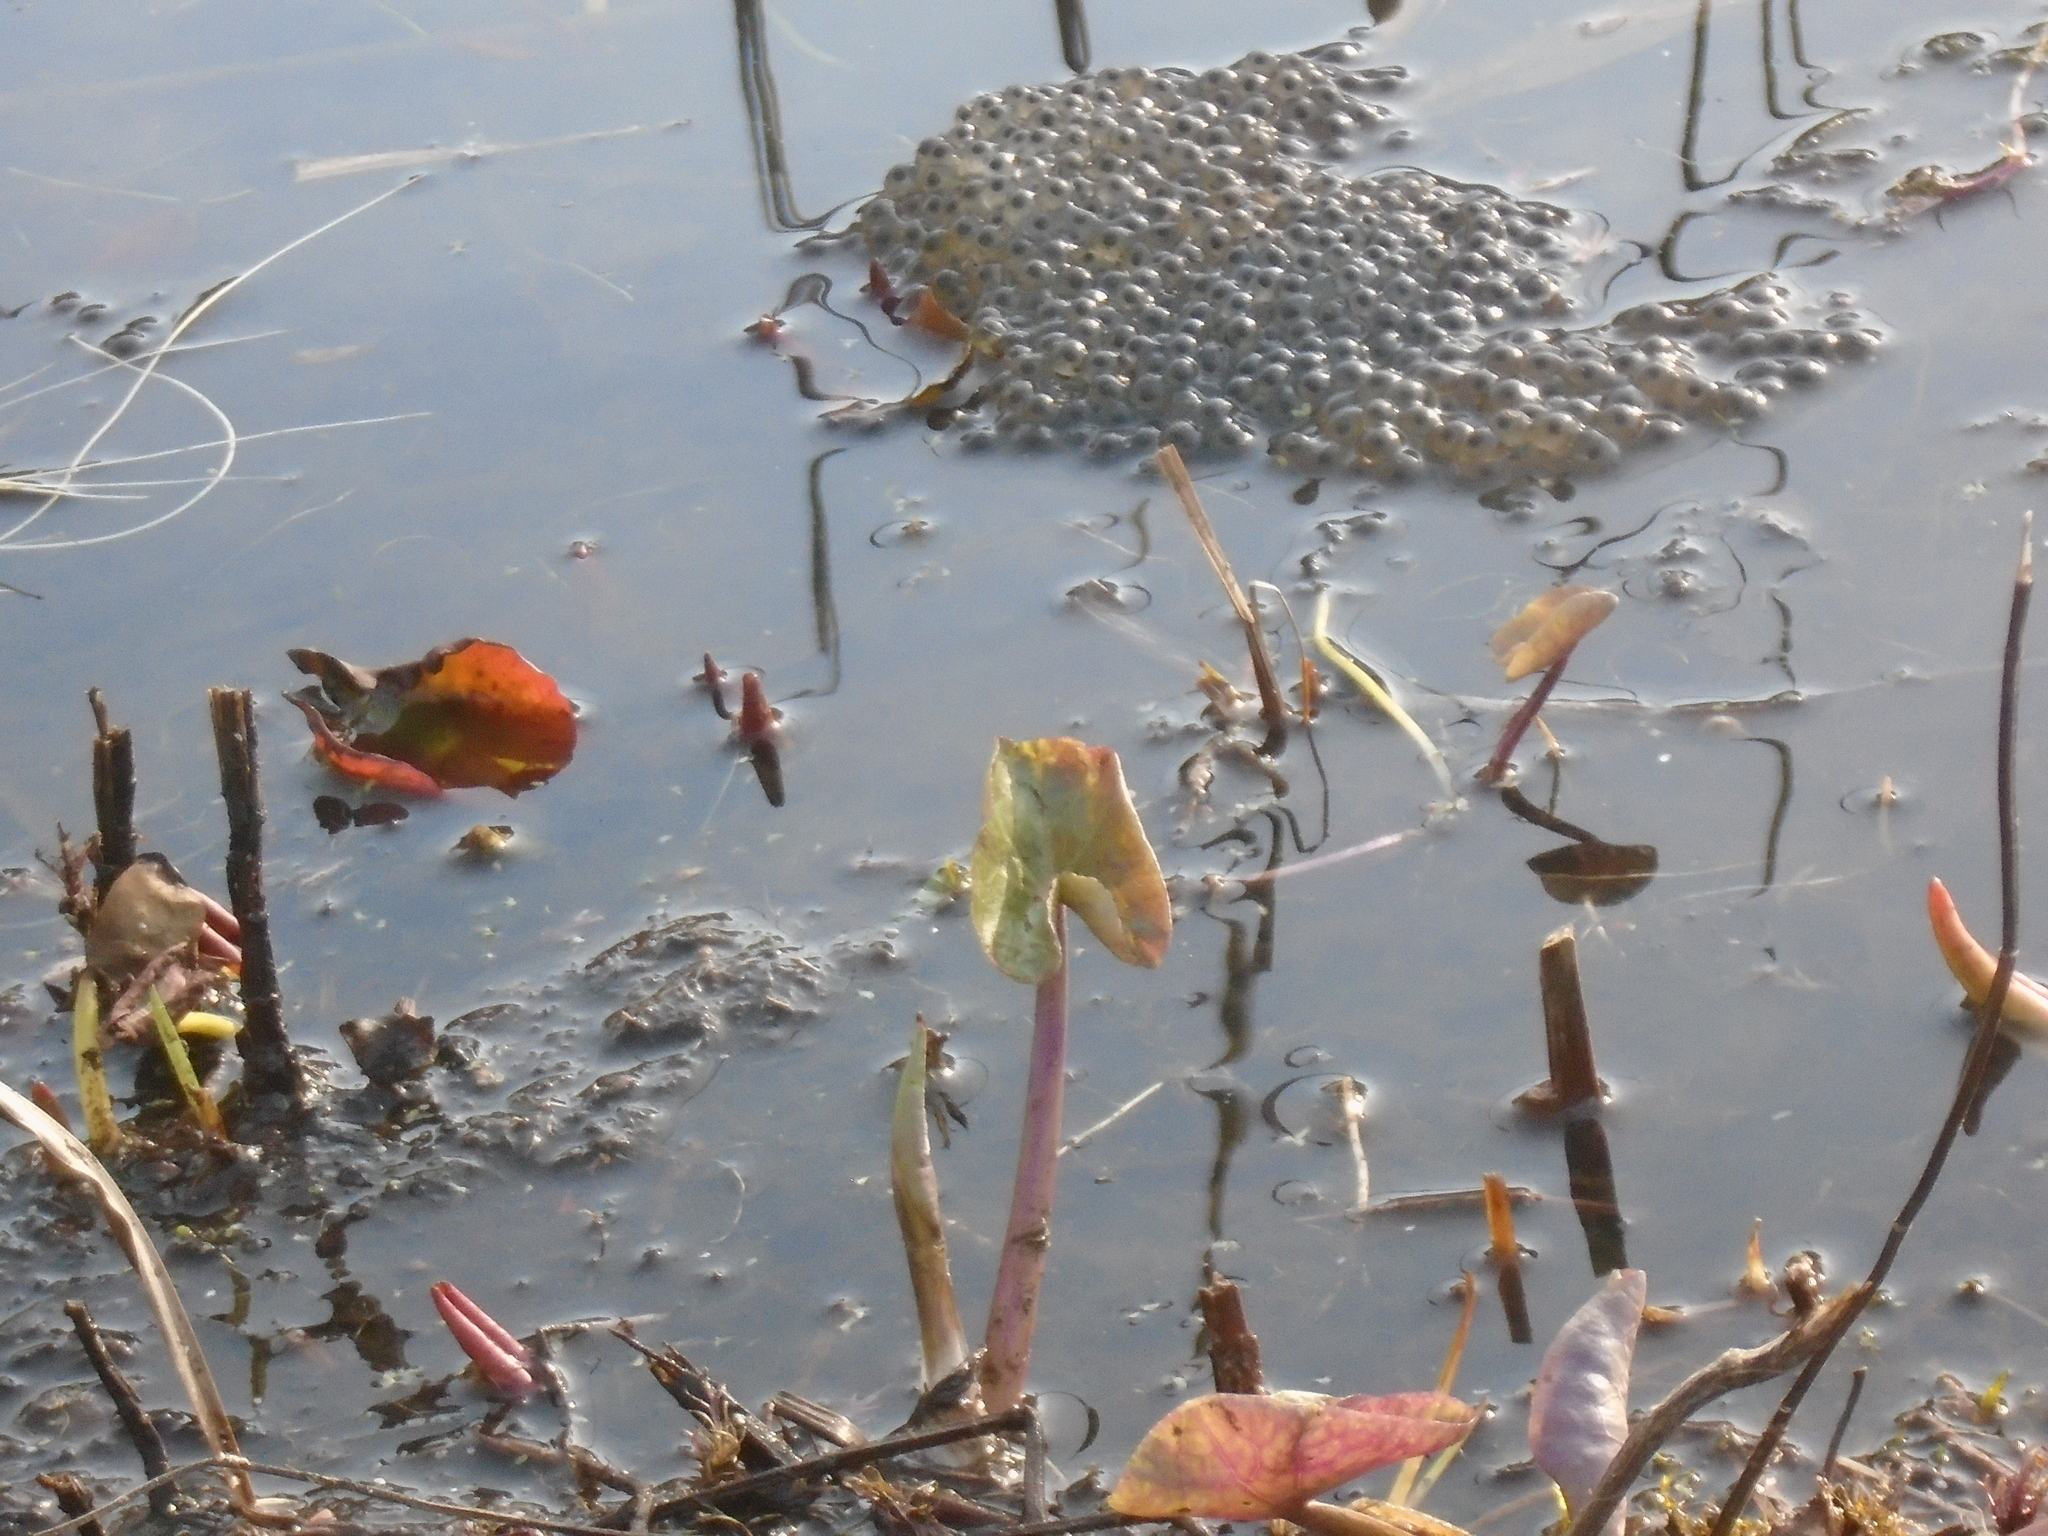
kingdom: Animalia
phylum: Chordata
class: Amphibia
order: Anura
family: Ranidae
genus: Rana
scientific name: Rana temporaria
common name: Common frog
